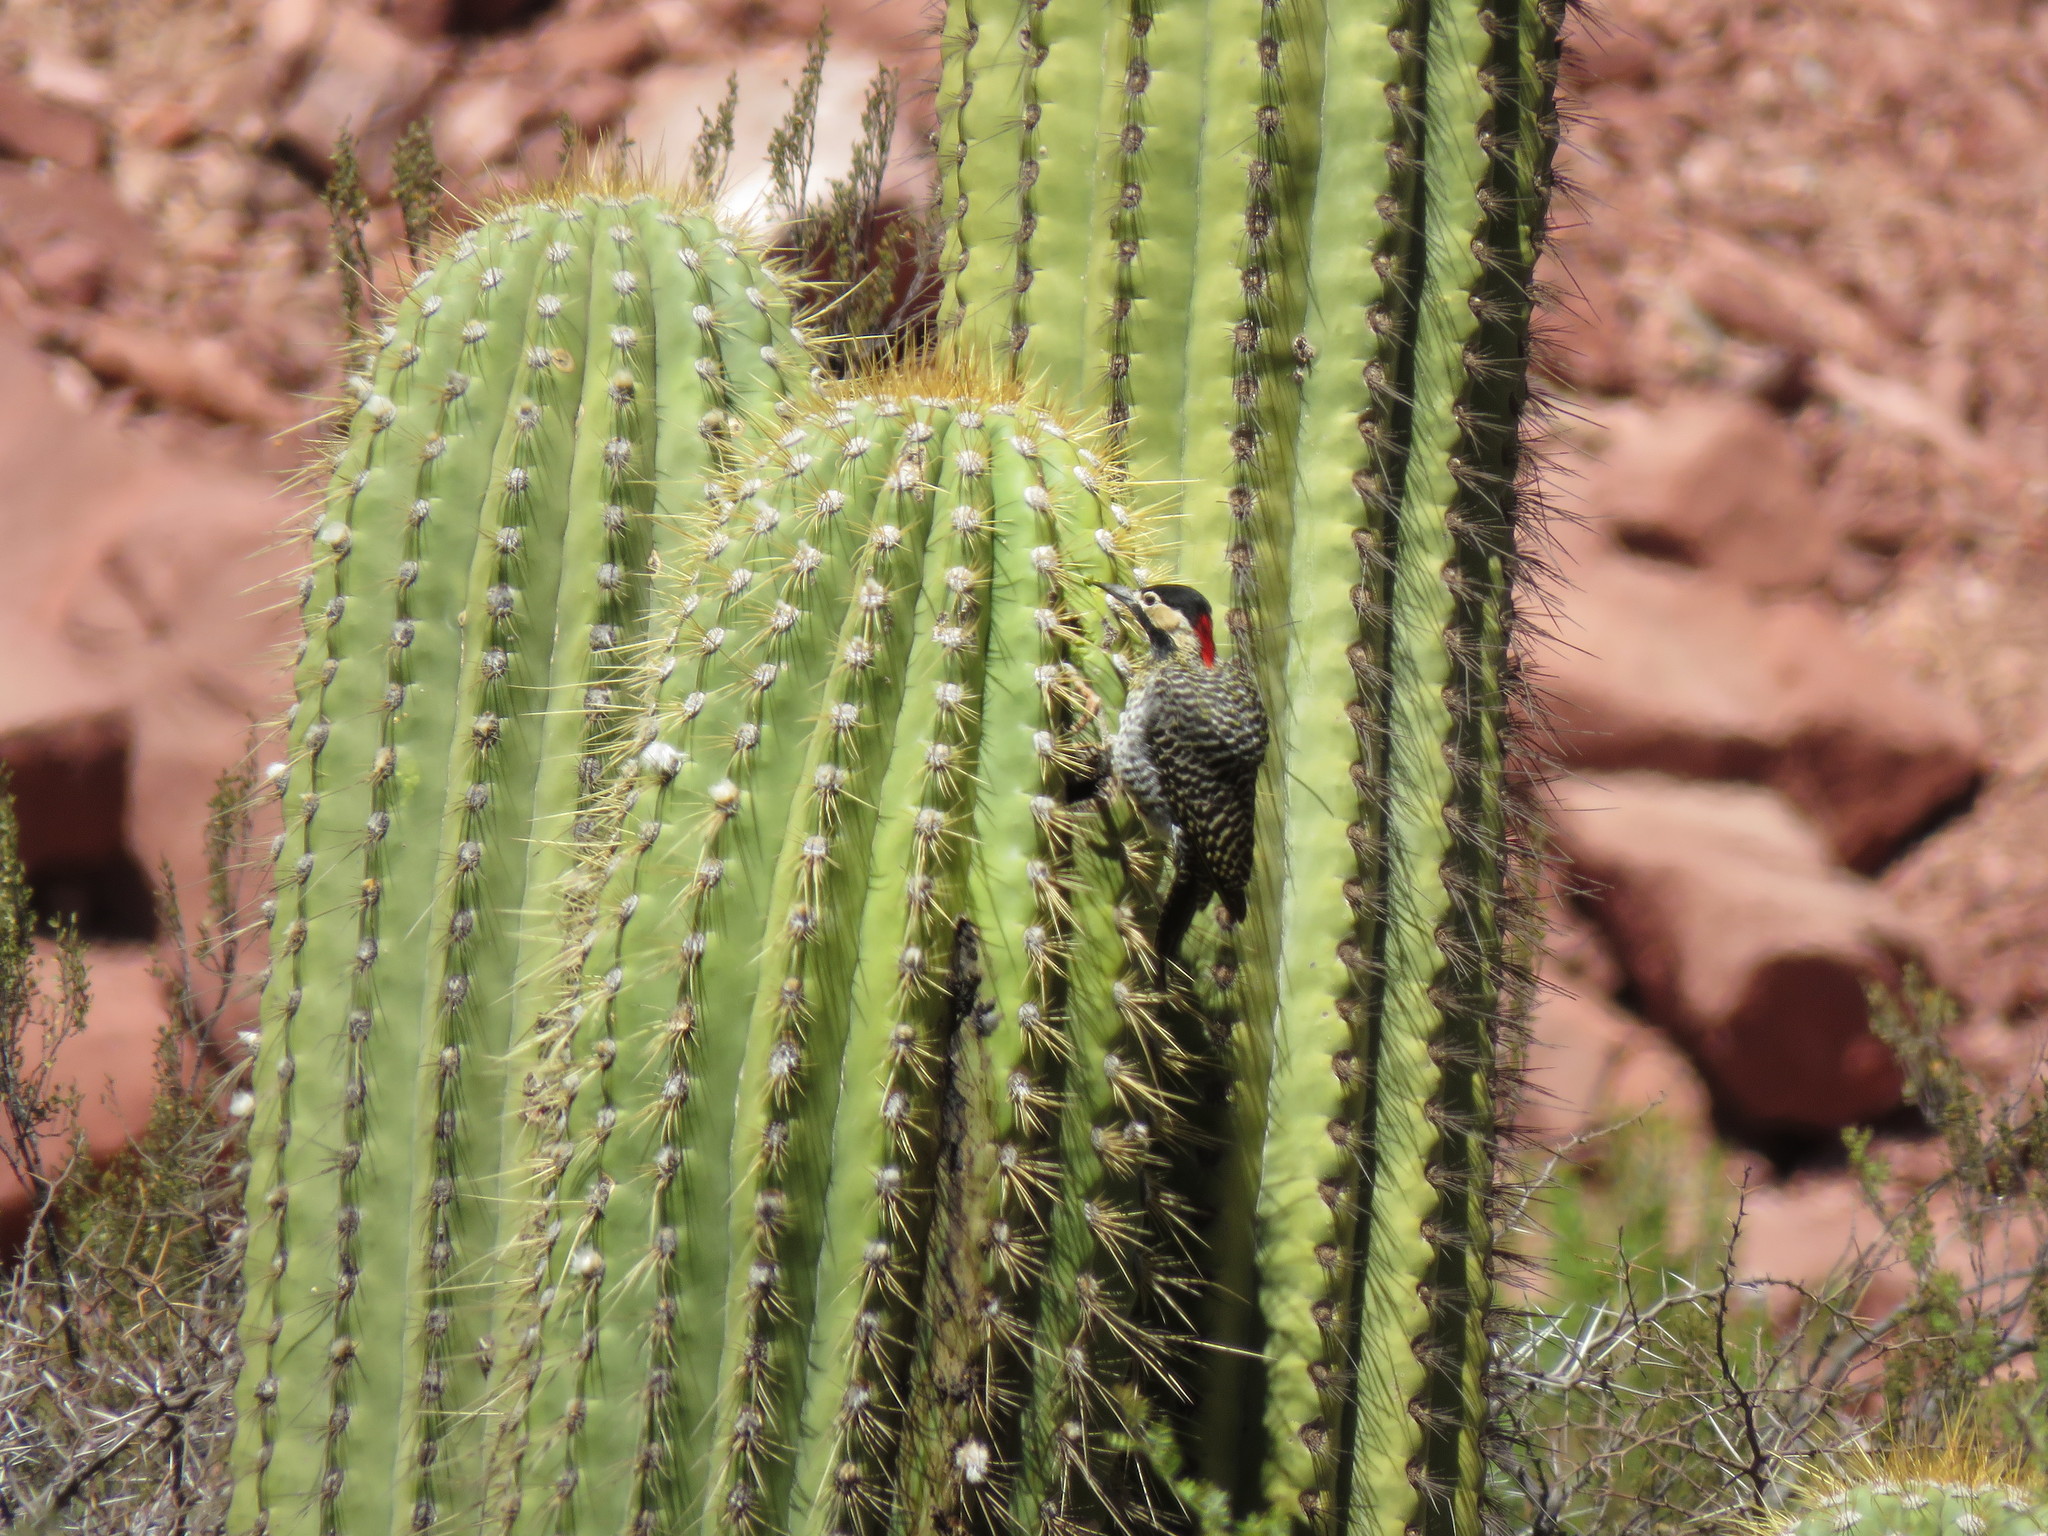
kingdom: Animalia
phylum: Chordata
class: Aves
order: Piciformes
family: Picidae
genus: Colaptes
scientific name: Colaptes melanochloros
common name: Green-barred woodpecker
